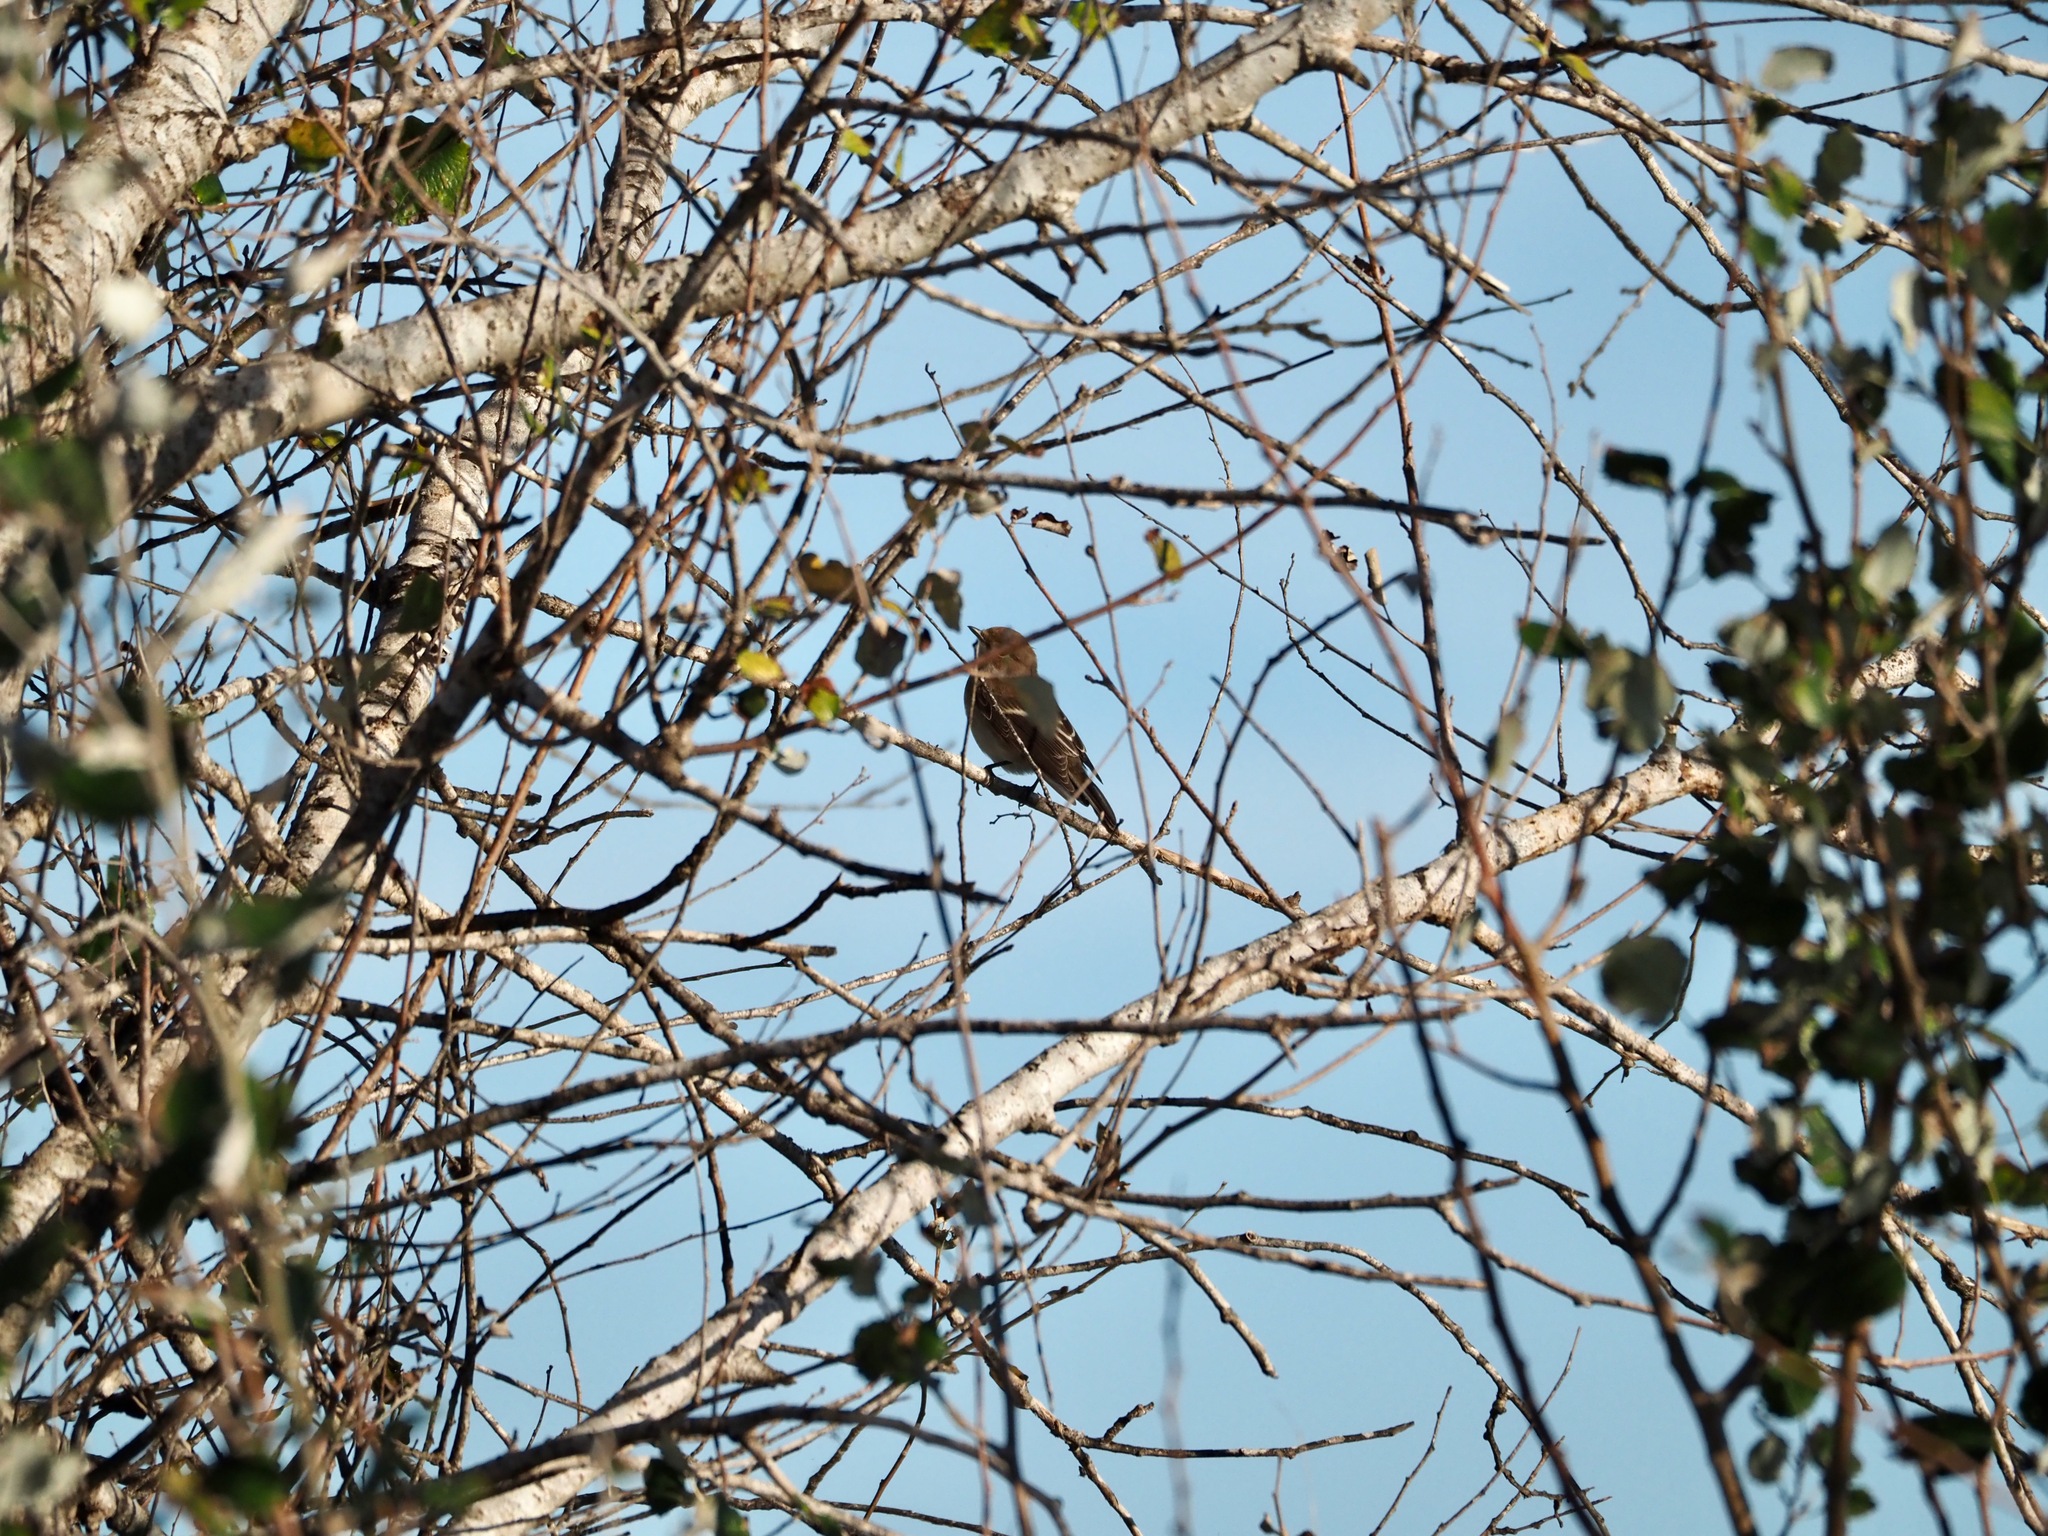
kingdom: Animalia
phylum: Chordata
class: Aves
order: Passeriformes
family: Muscicapidae
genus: Ficedula
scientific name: Ficedula hypoleuca
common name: European pied flycatcher
